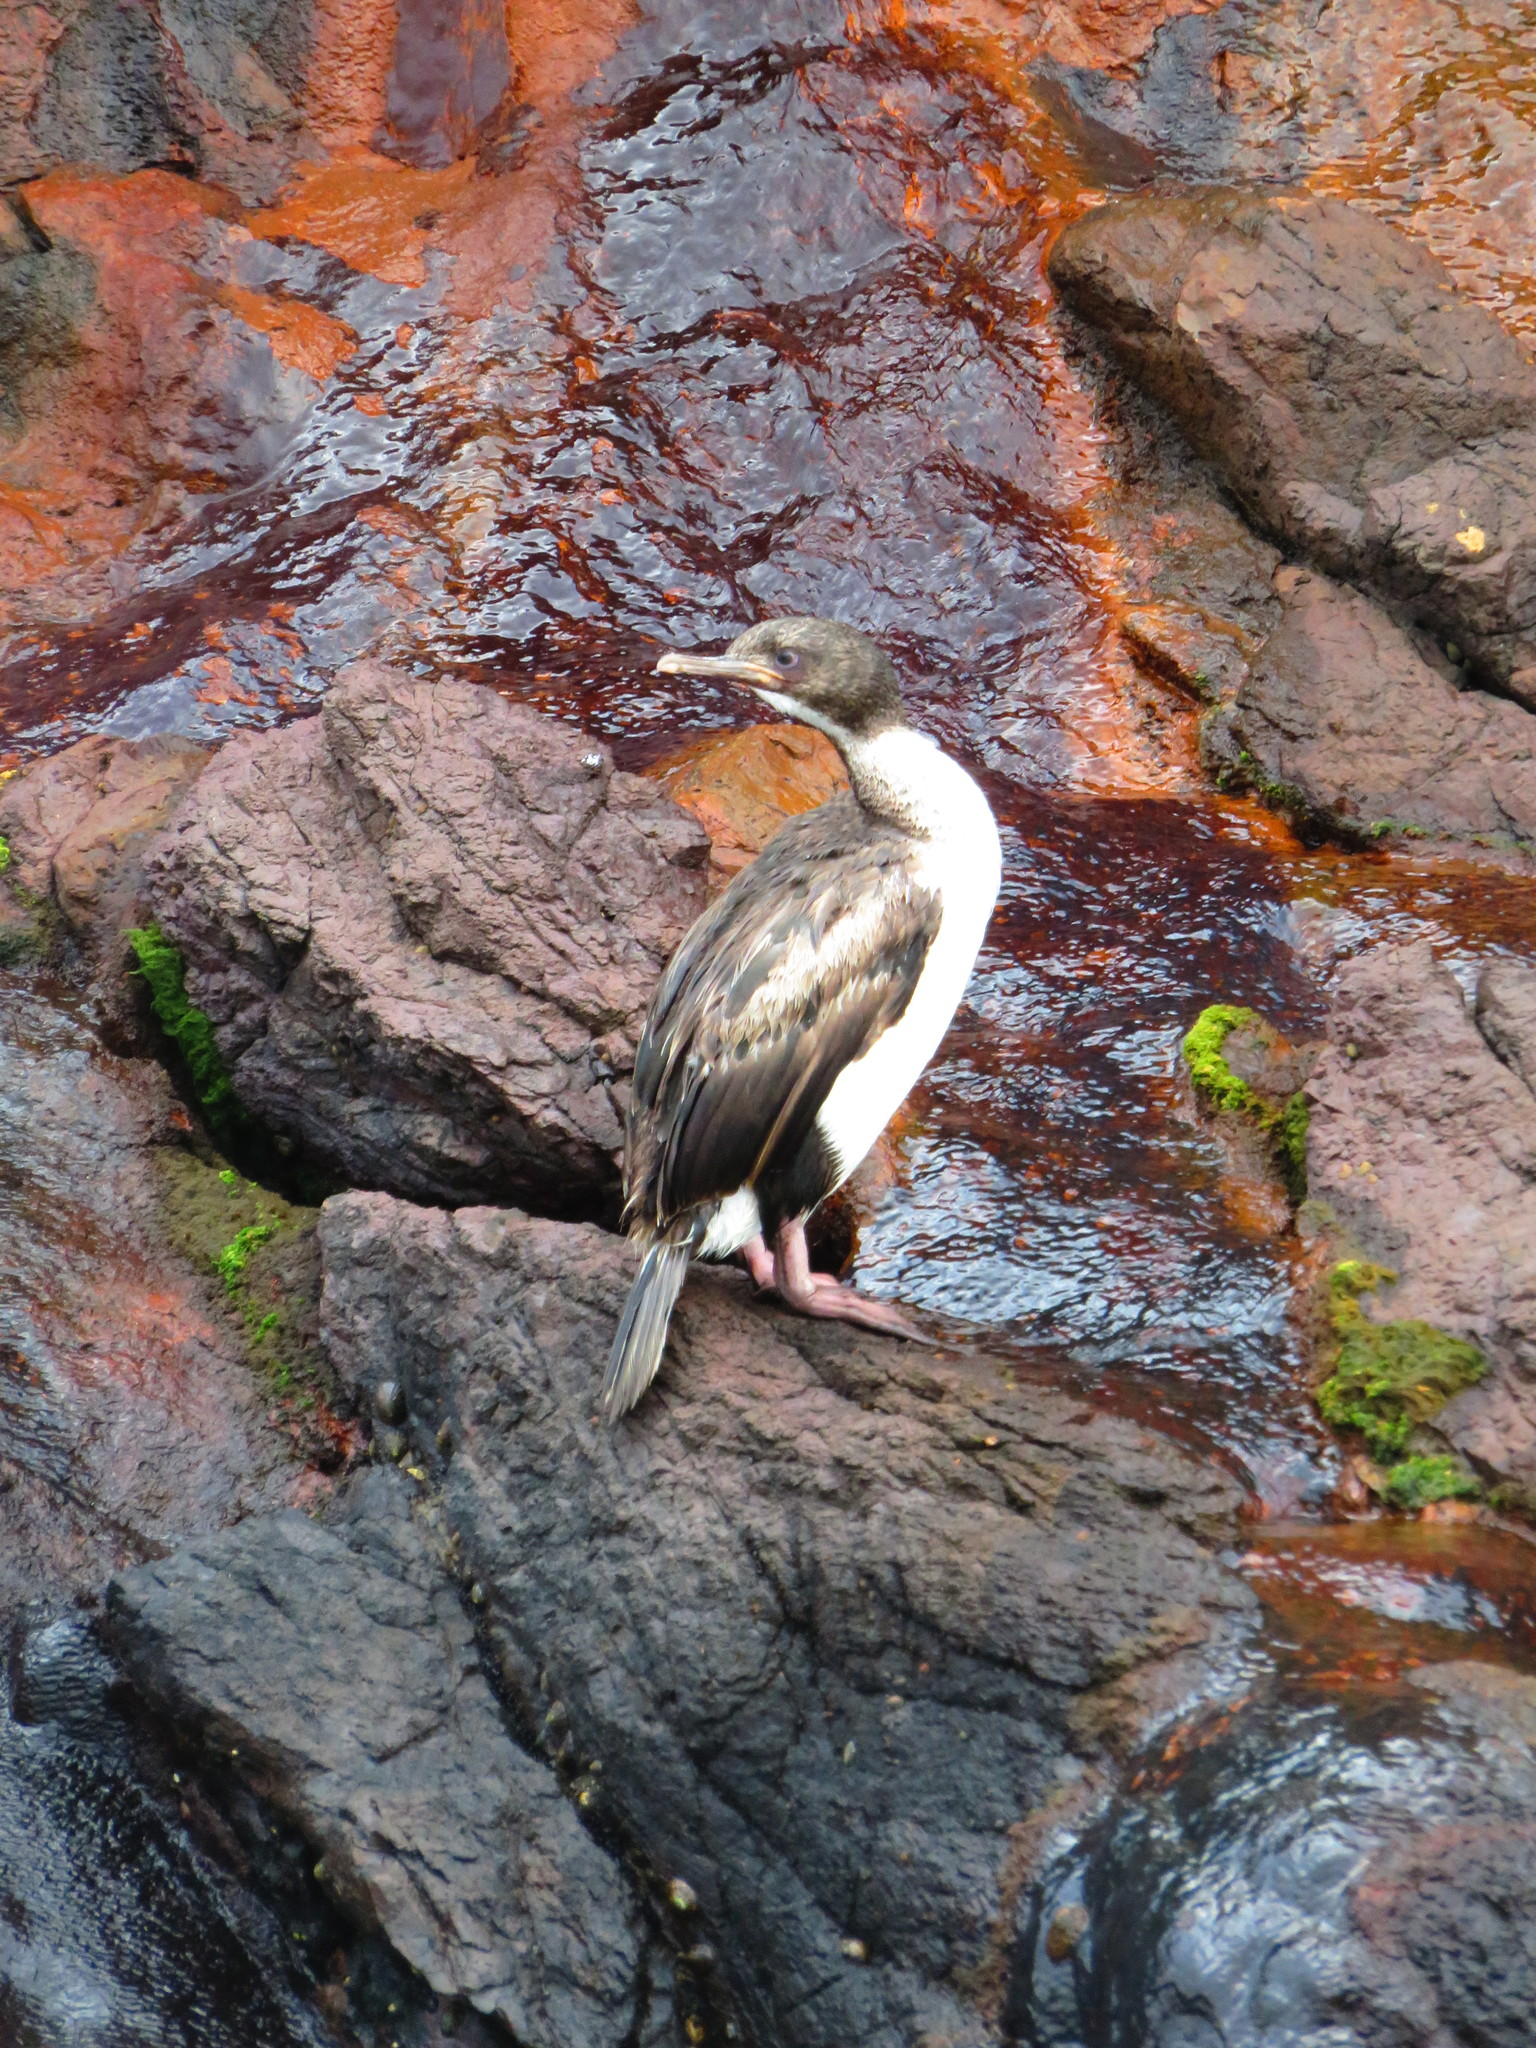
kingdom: Animalia
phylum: Chordata
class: Aves
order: Suliformes
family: Phalacrocoracidae
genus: Leucocarbo
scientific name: Leucocarbo colensoi
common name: Auckland shag
